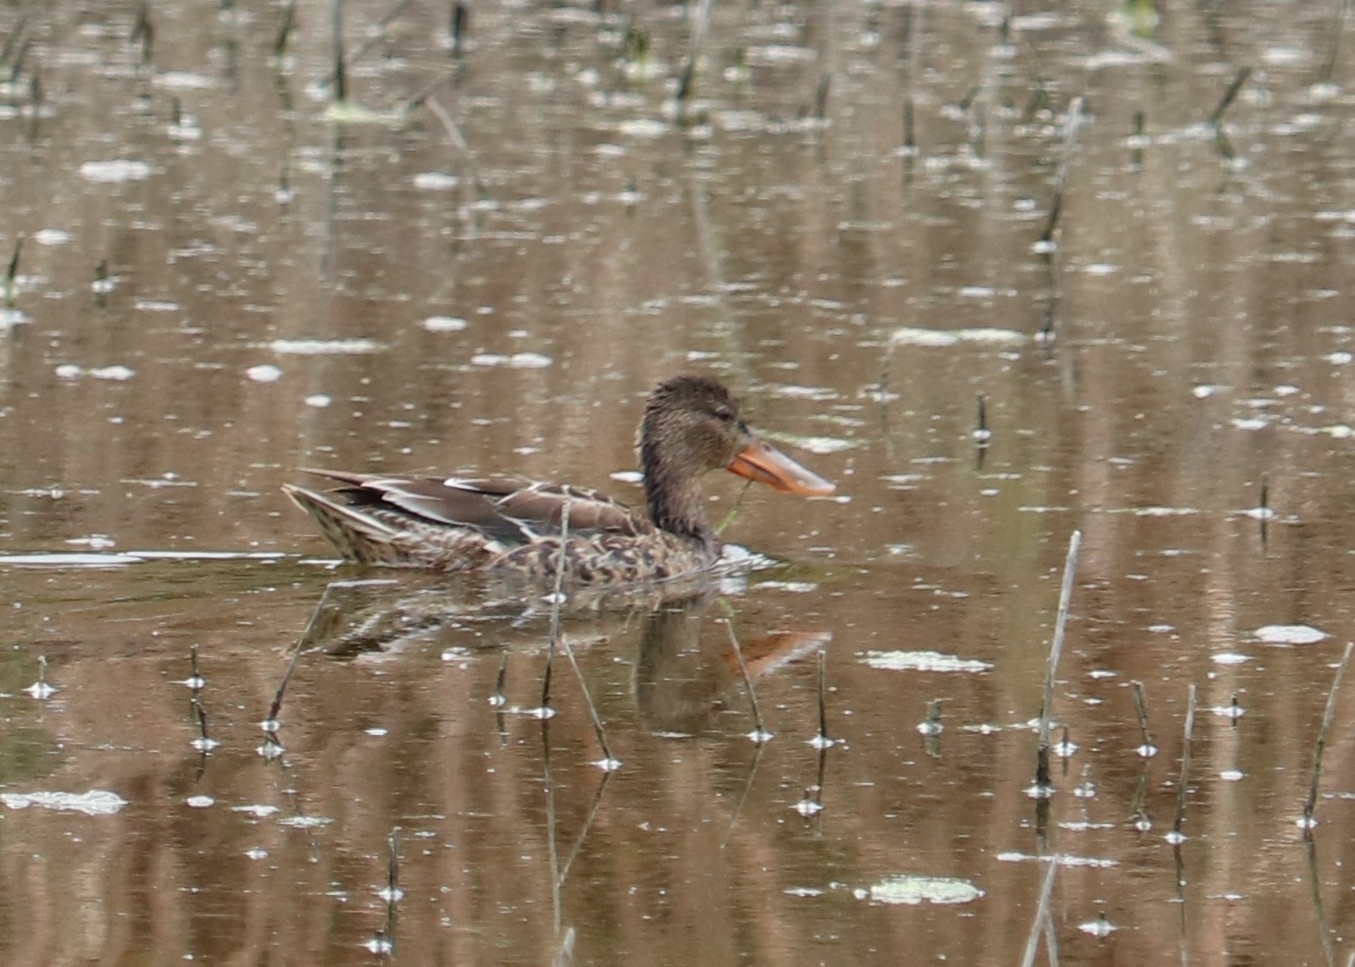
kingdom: Animalia
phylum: Chordata
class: Aves
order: Anseriformes
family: Anatidae
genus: Spatula
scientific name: Spatula clypeata
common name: Northern shoveler
